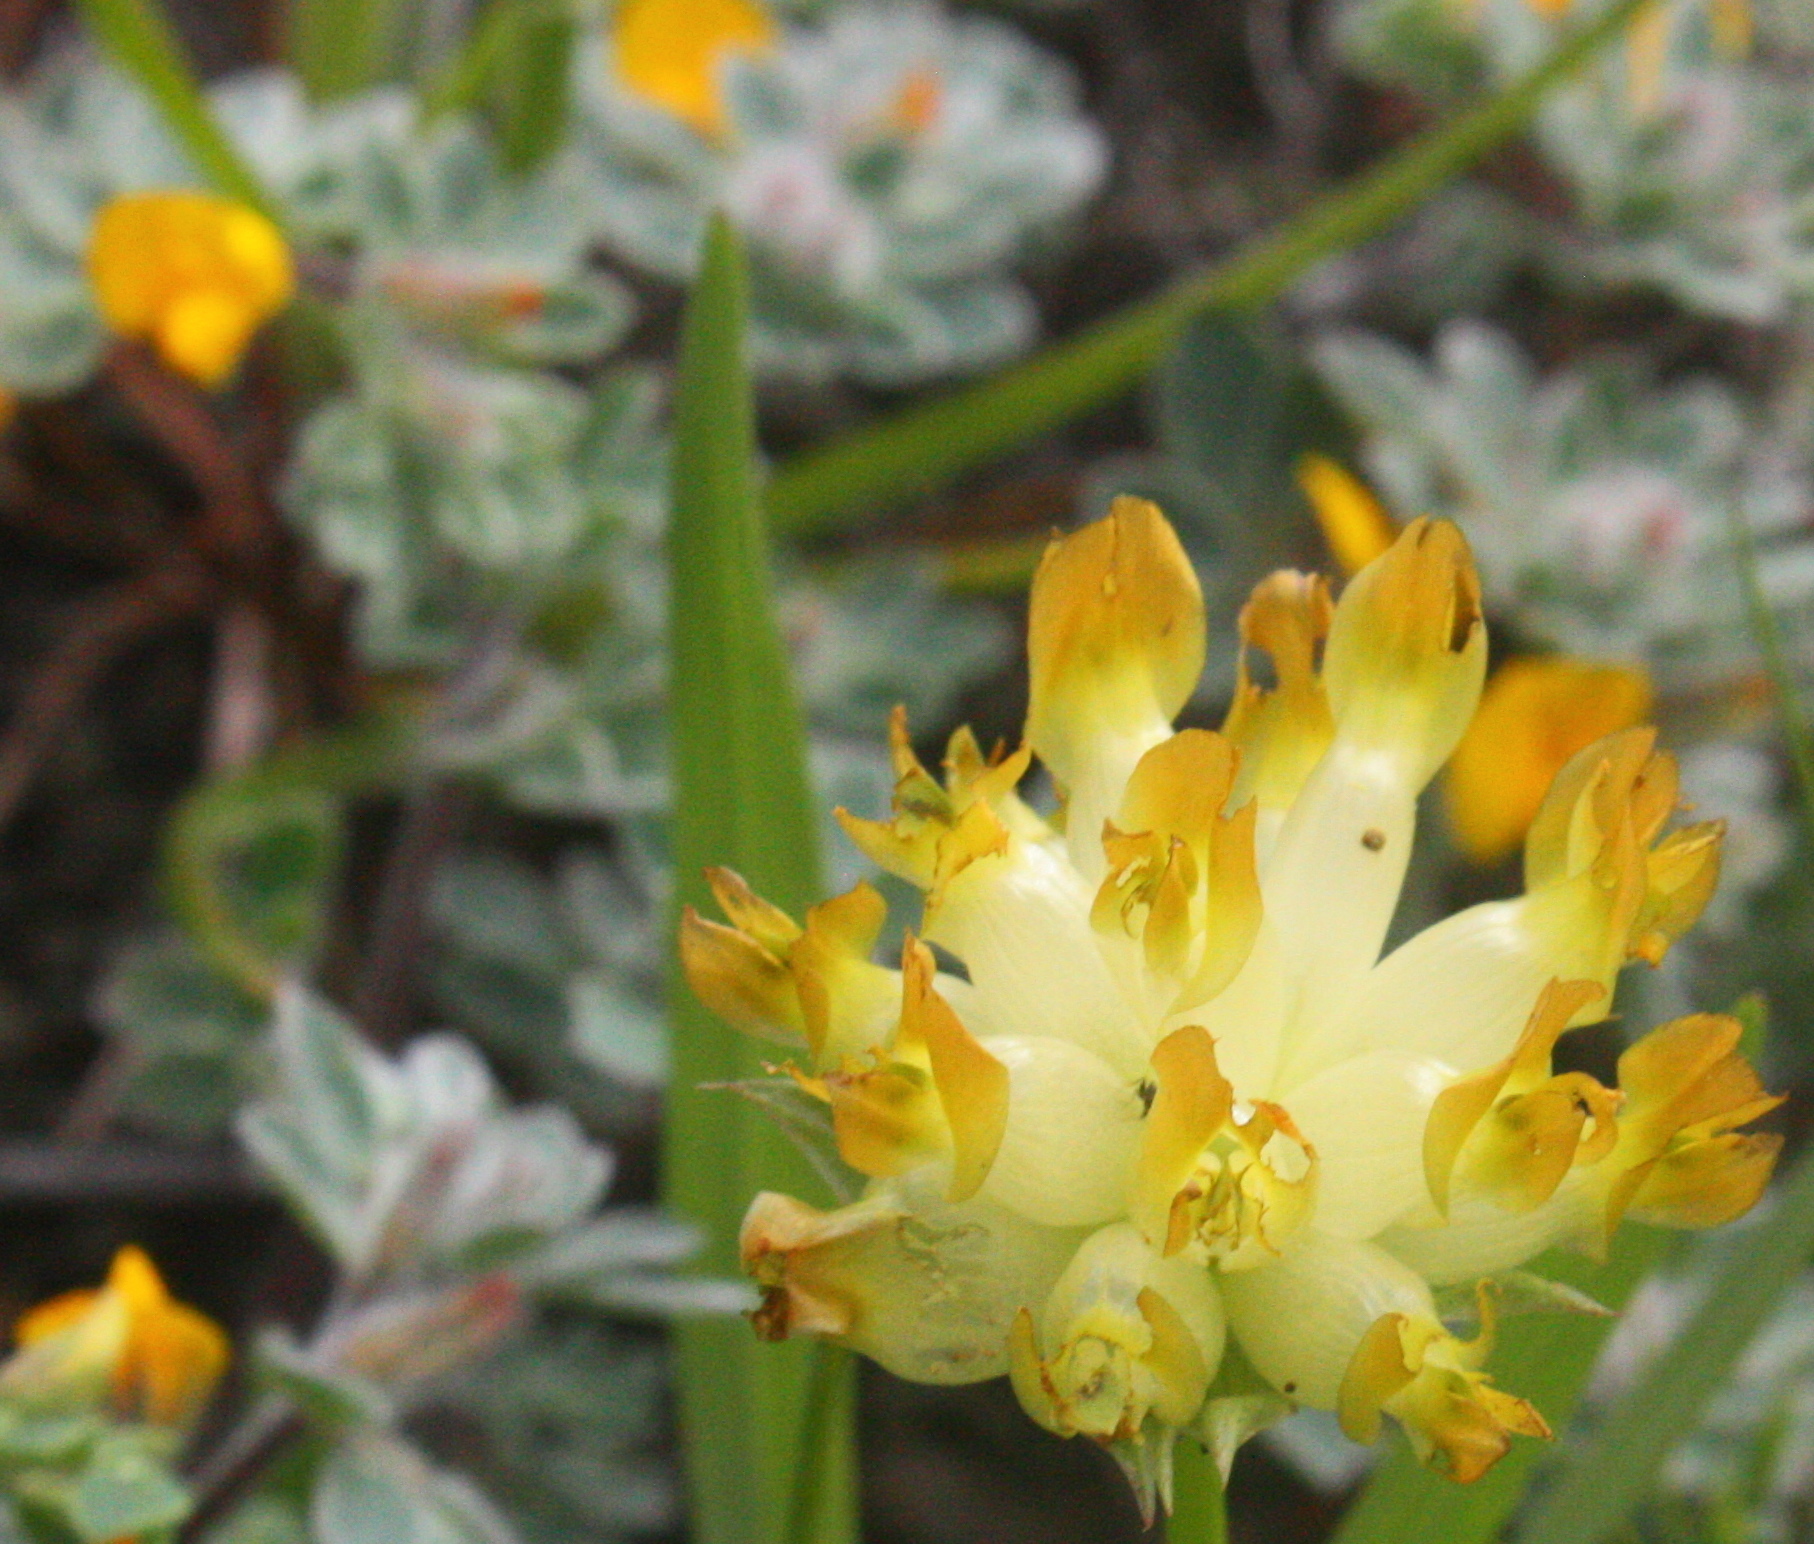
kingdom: Plantae
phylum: Tracheophyta
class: Magnoliopsida
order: Fabales
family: Fabaceae
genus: Trifolium
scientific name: Trifolium fucatum
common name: Puff clover
